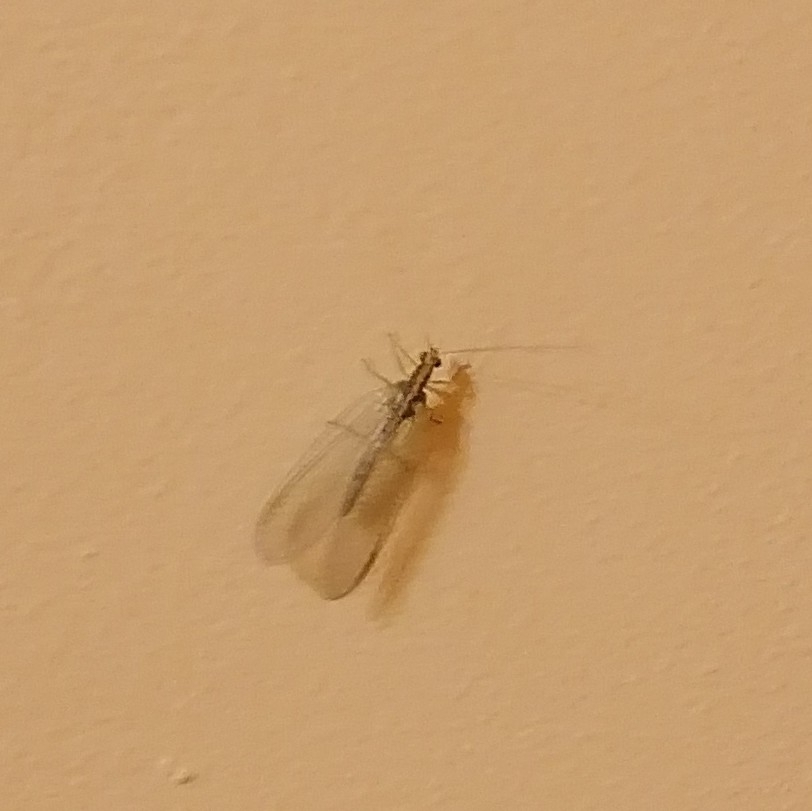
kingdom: Animalia
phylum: Arthropoda
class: Insecta
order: Neuroptera
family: Chrysopidae
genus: Chrysoperla
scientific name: Chrysoperla
